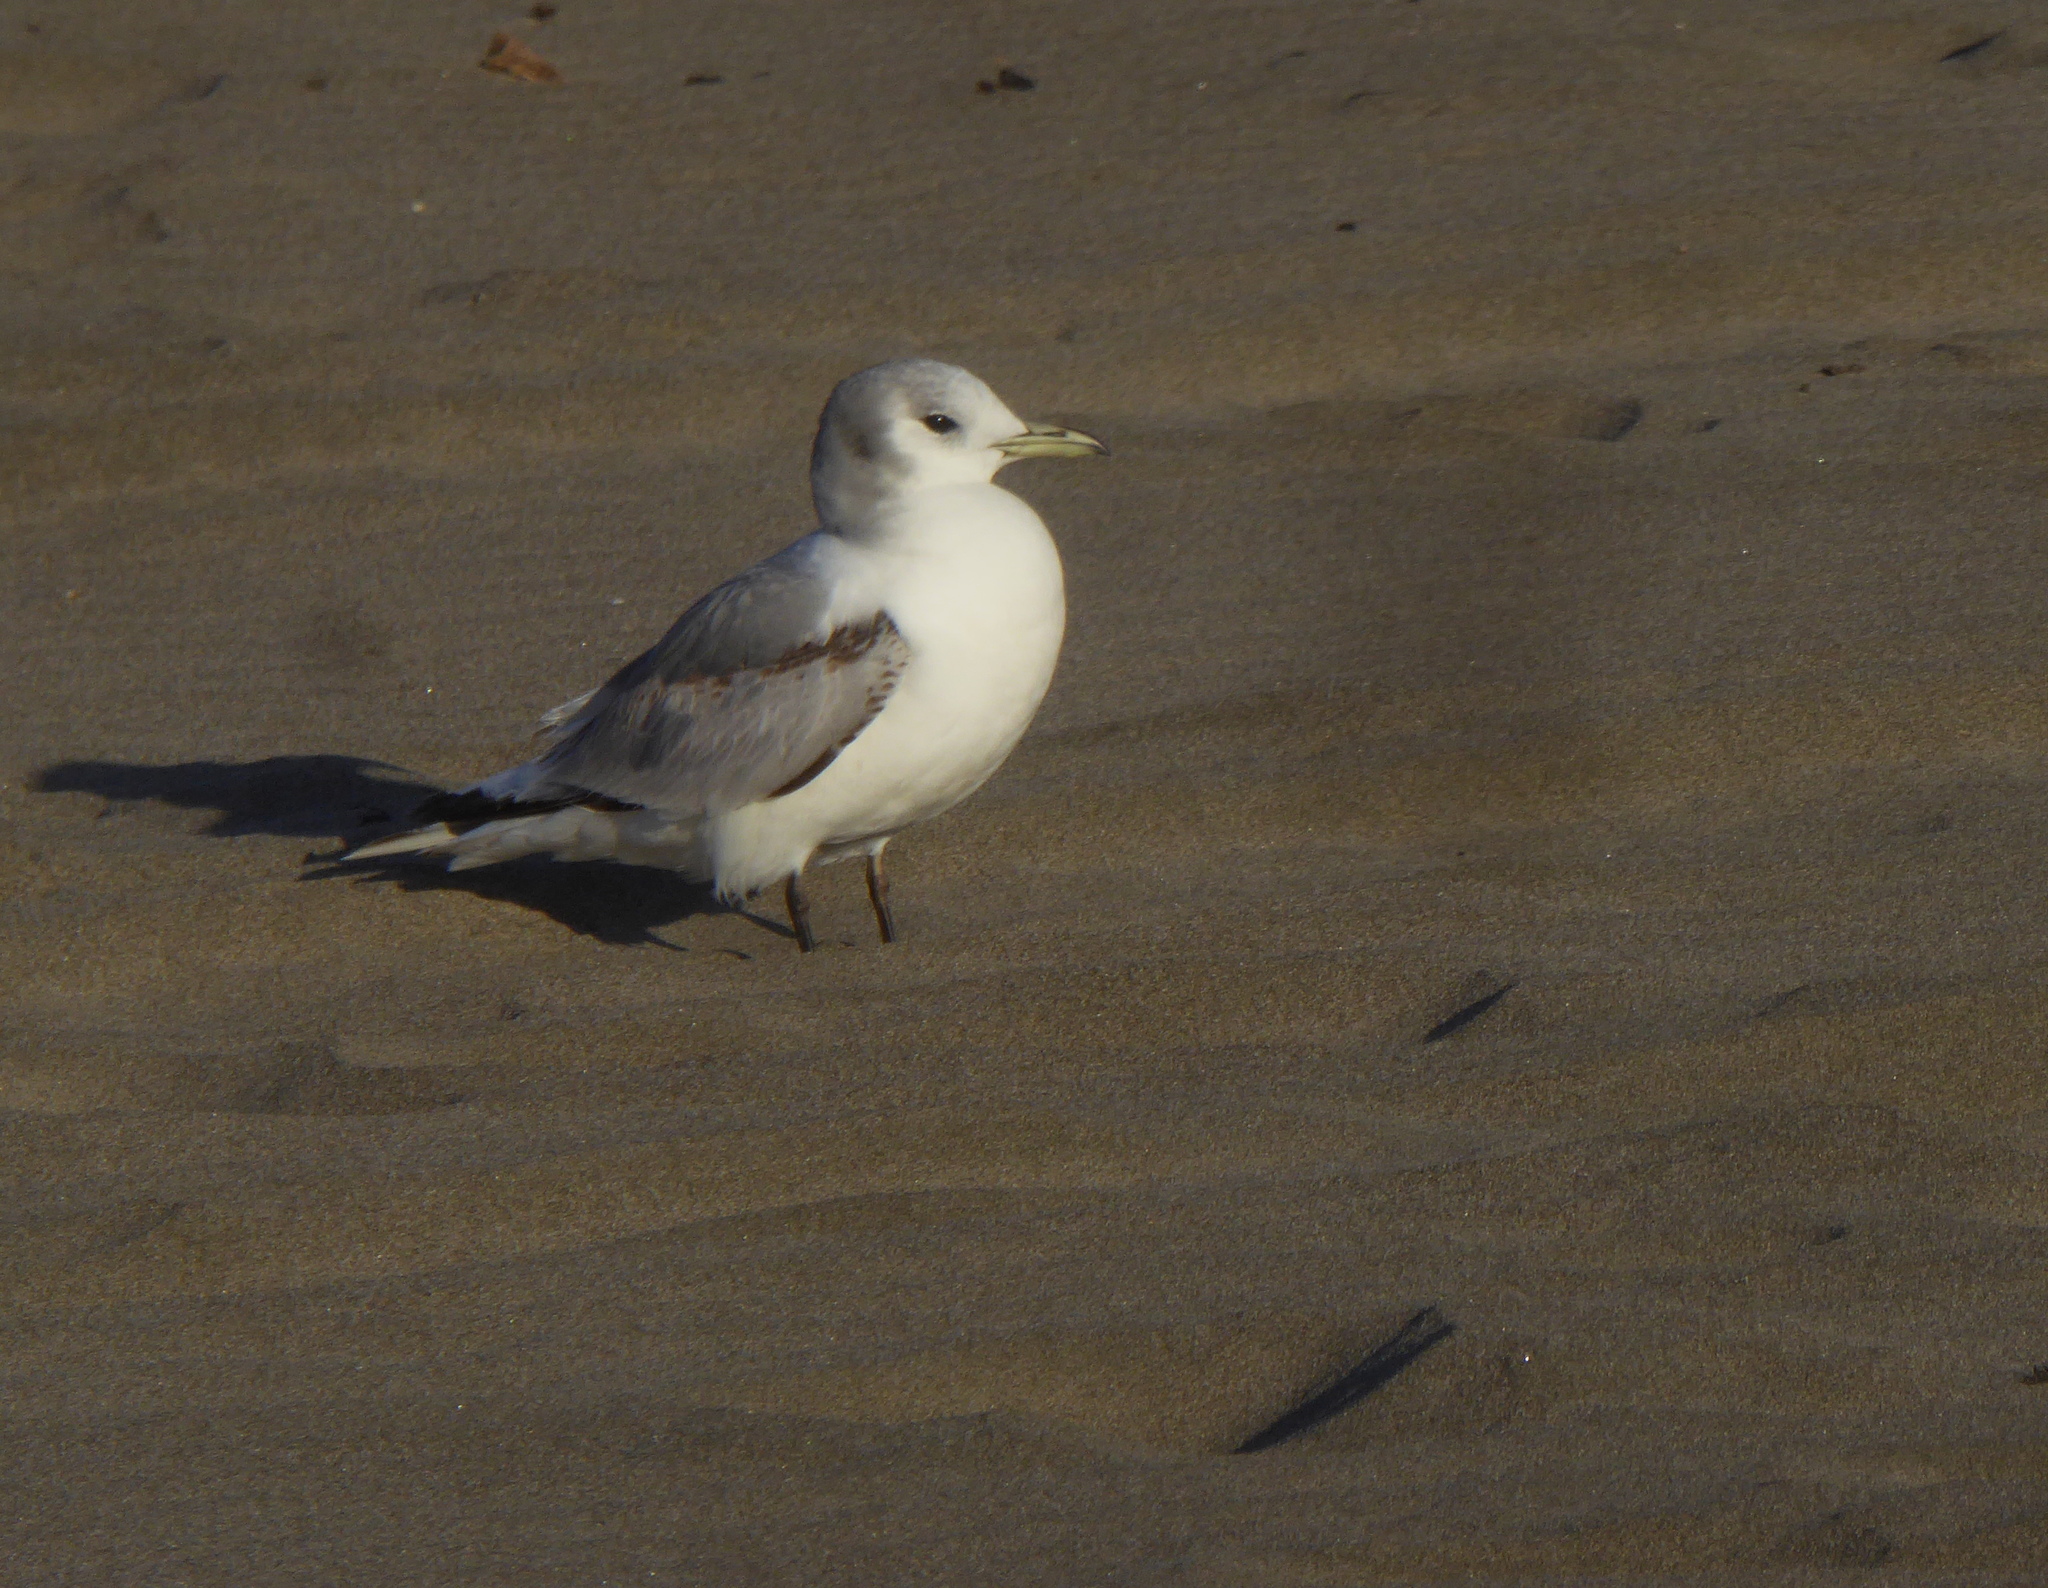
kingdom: Animalia
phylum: Chordata
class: Aves
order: Charadriiformes
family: Laridae
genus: Rissa
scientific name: Rissa tridactyla
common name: Black-legged kittiwake
